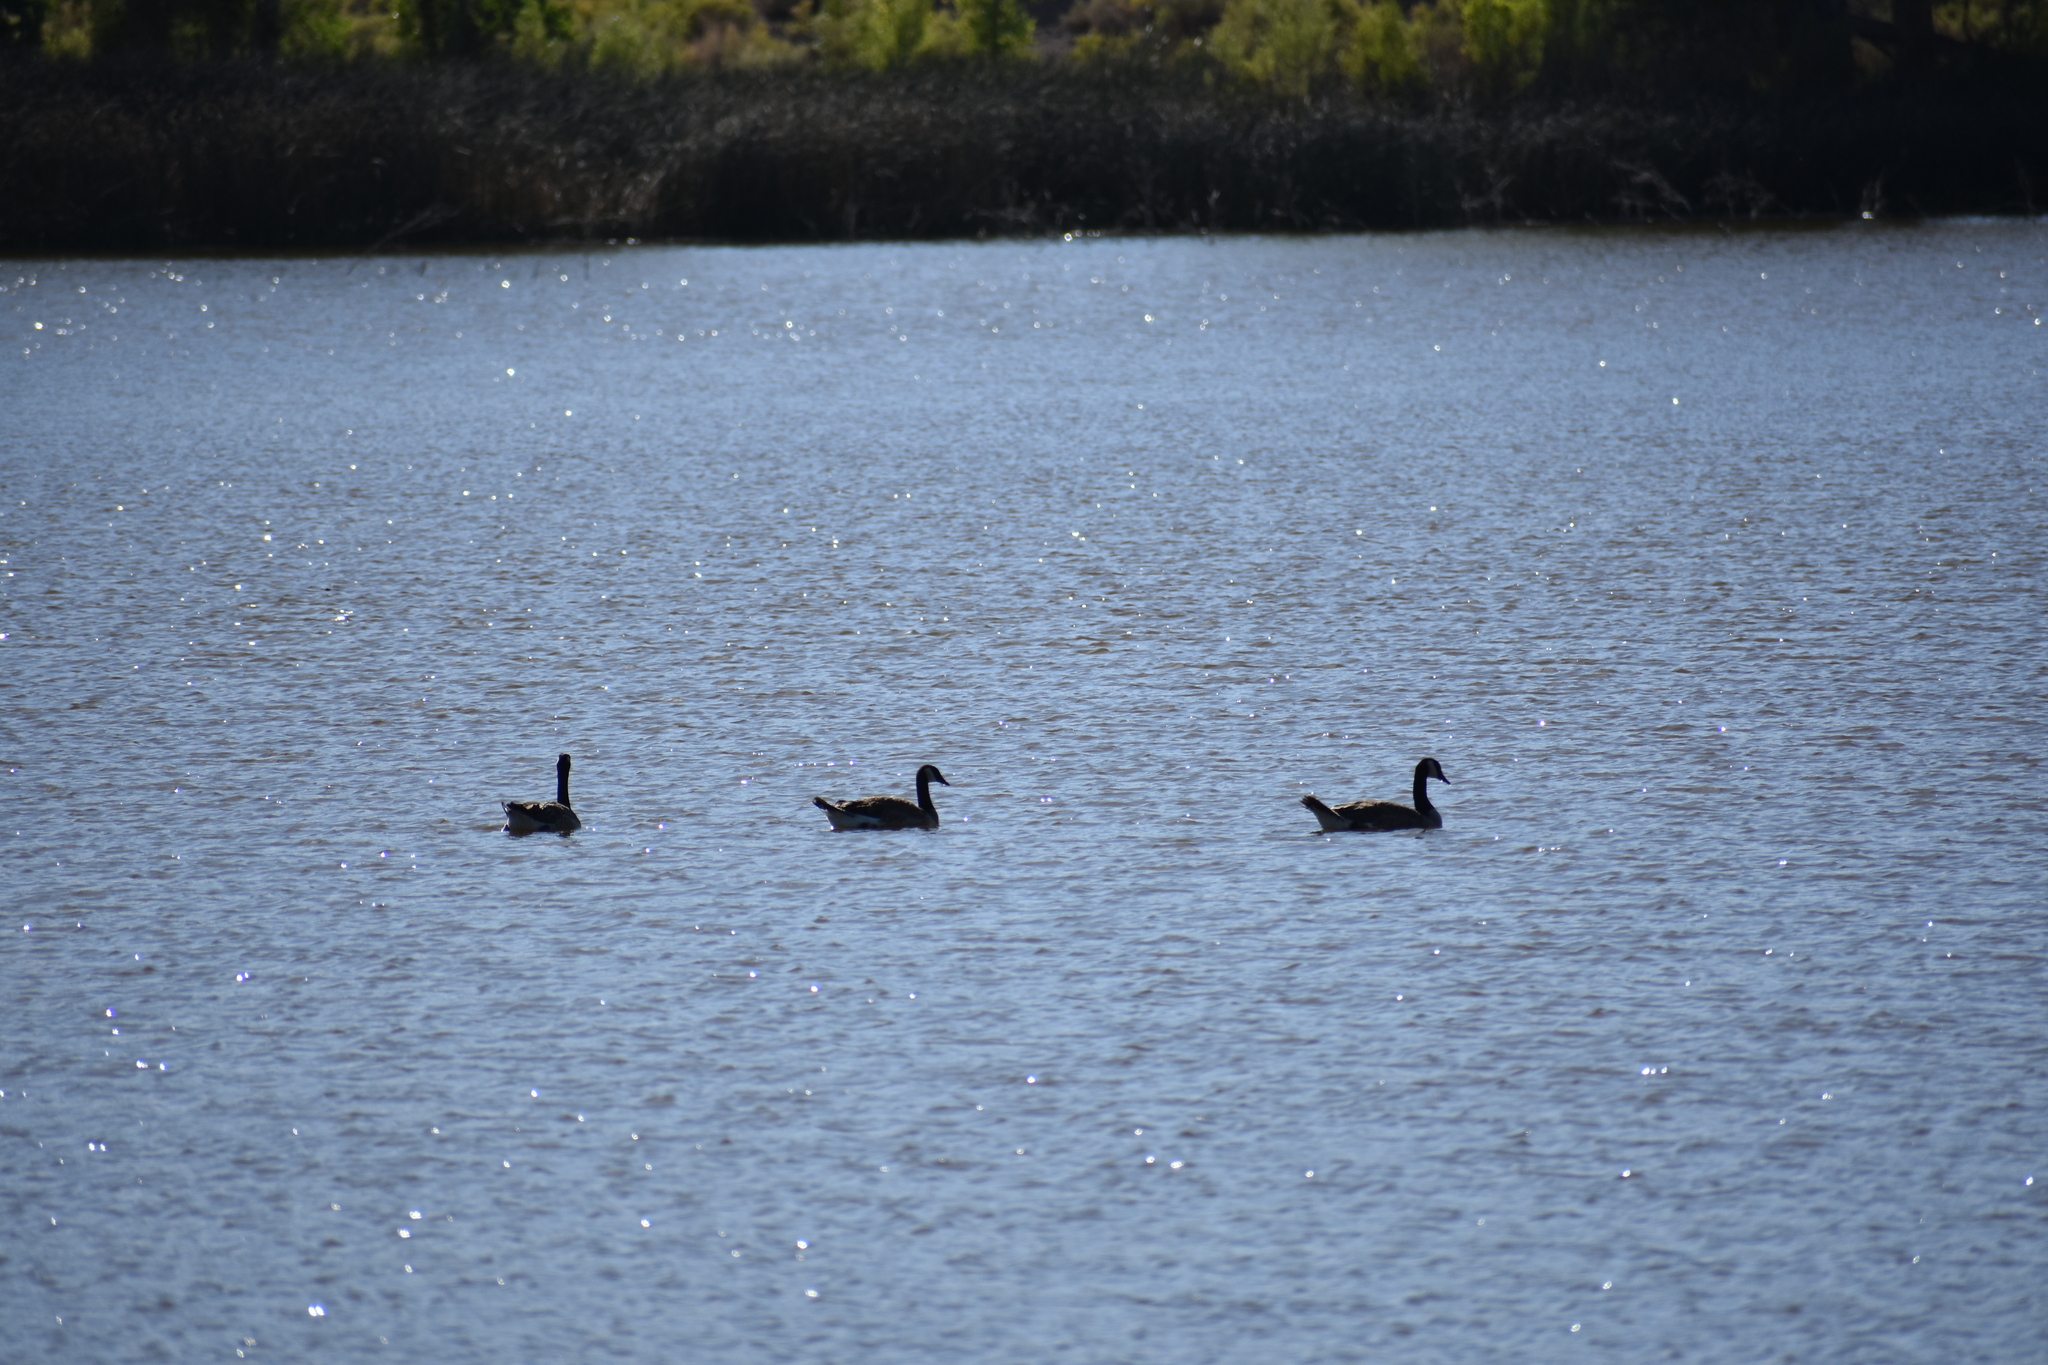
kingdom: Animalia
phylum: Chordata
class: Aves
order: Anseriformes
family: Anatidae
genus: Branta
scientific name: Branta canadensis
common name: Canada goose
